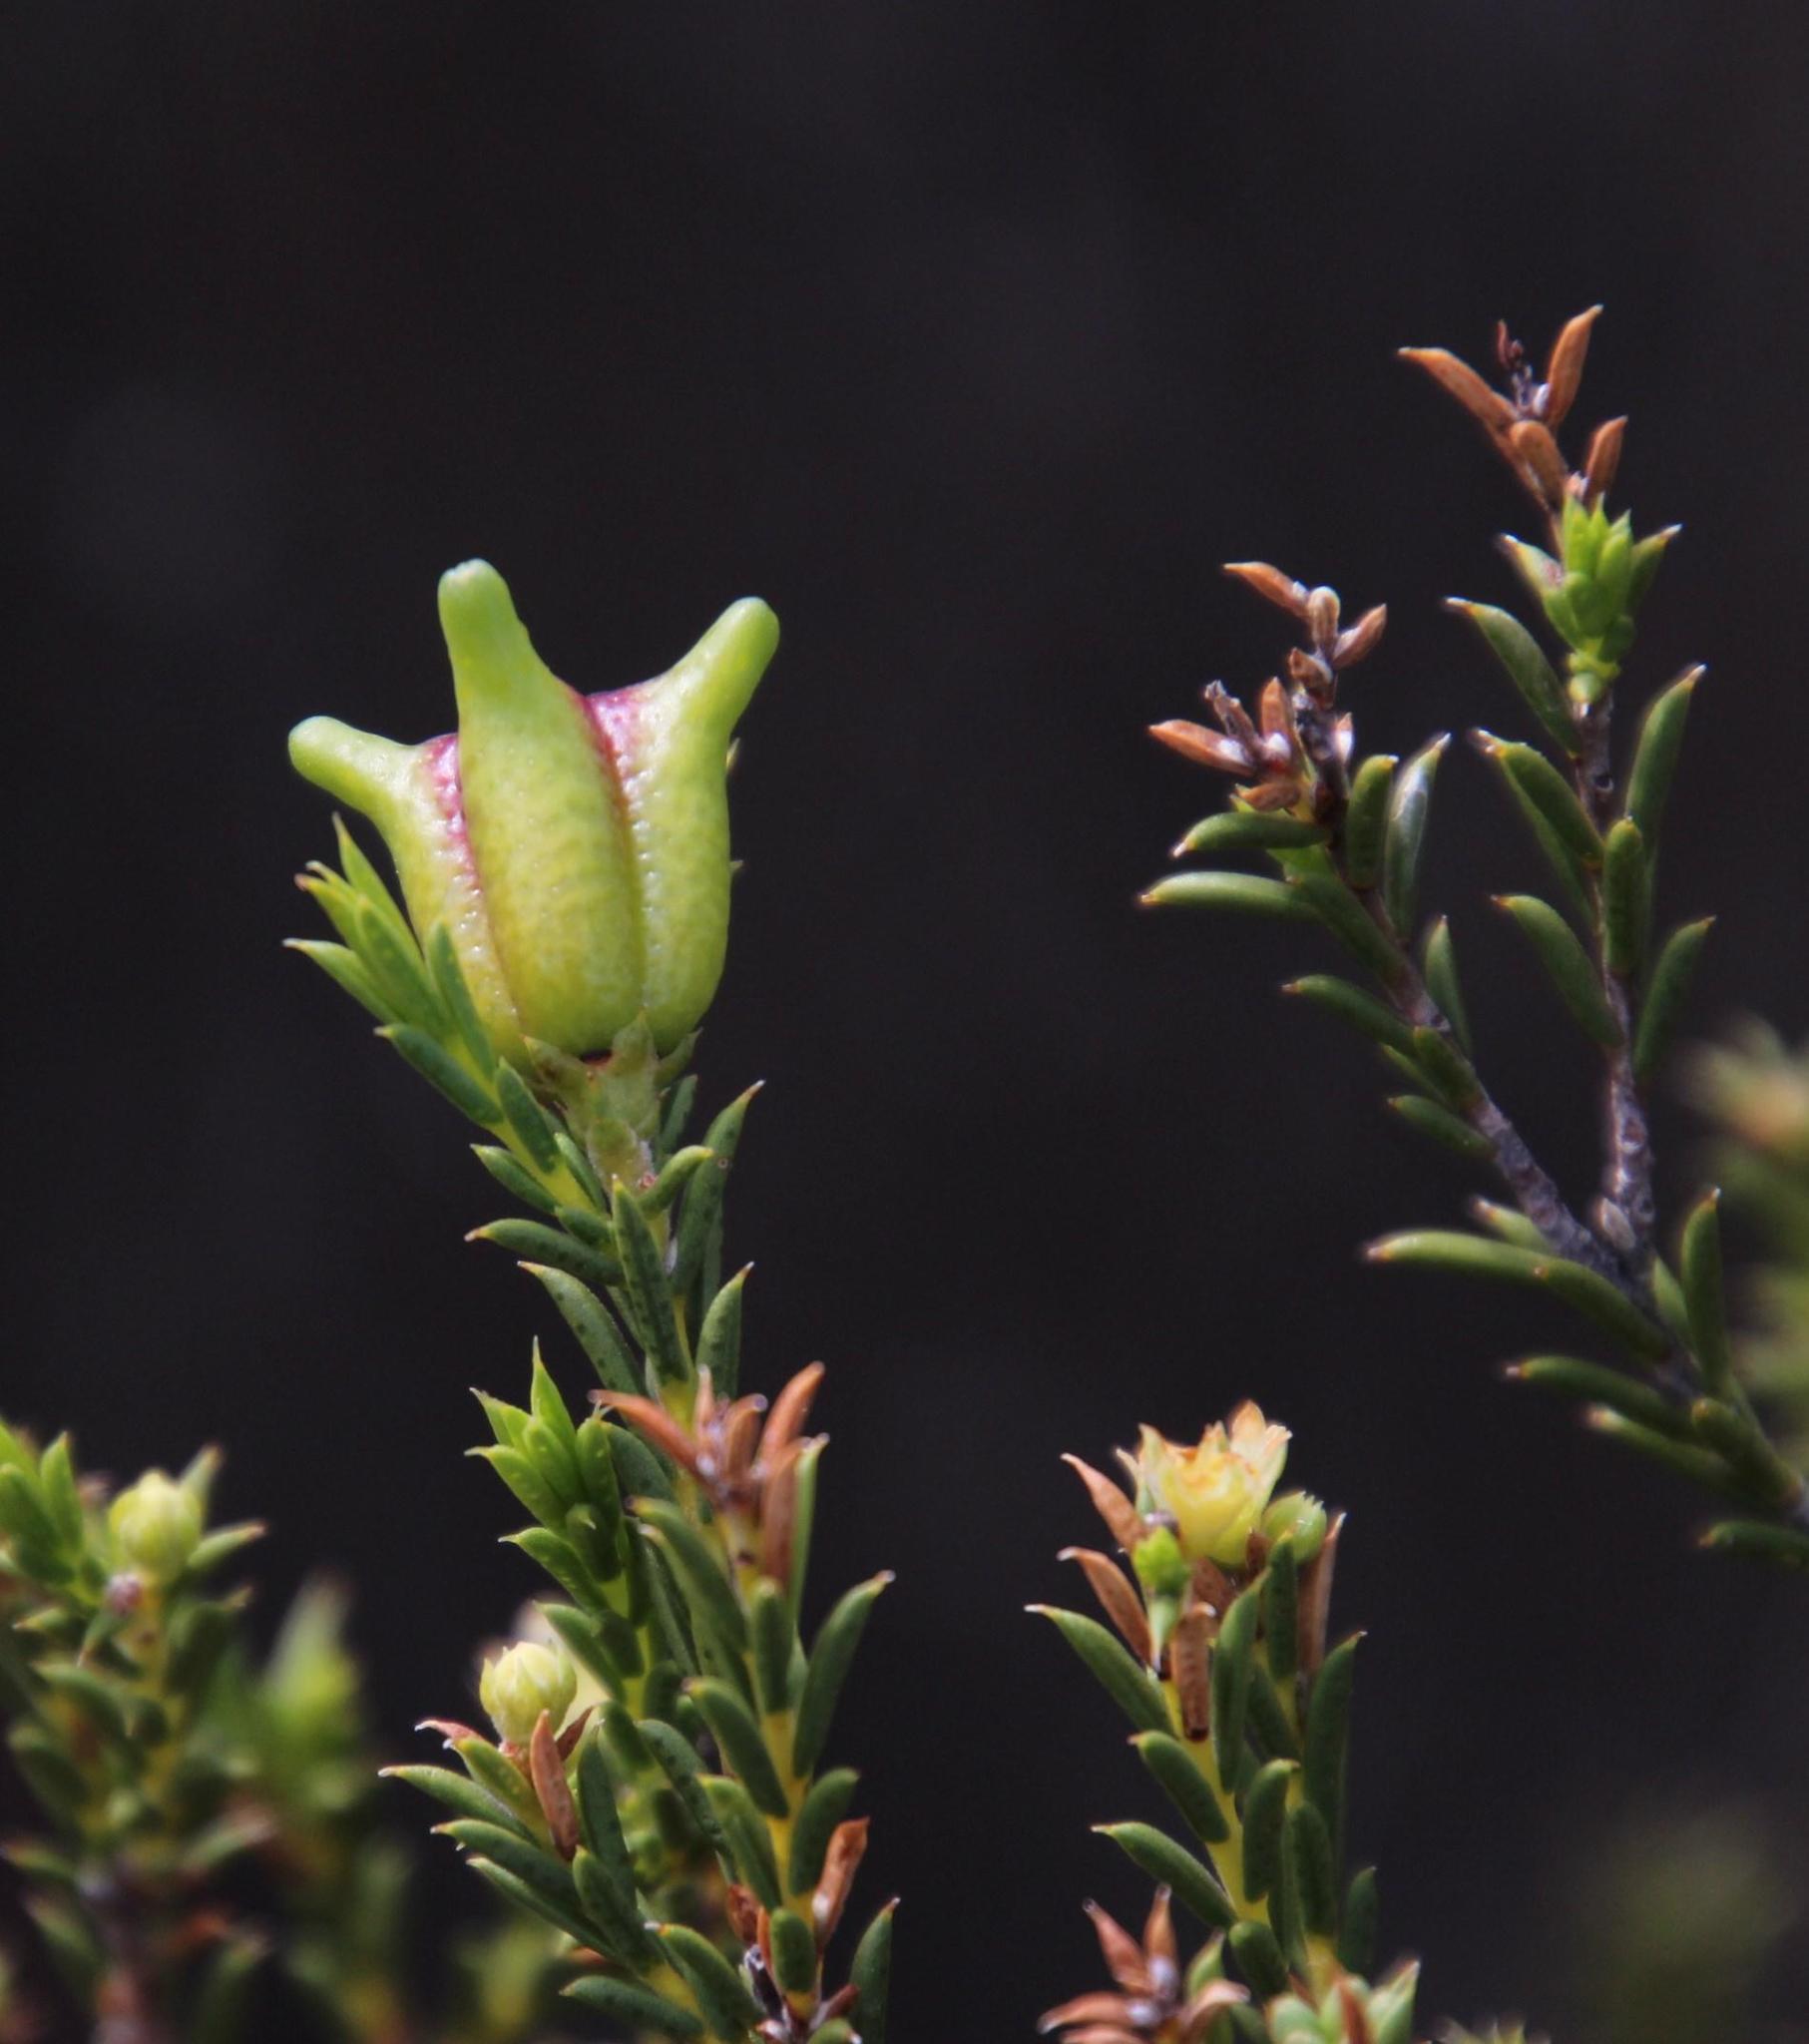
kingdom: Plantae
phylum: Tracheophyta
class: Magnoliopsida
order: Sapindales
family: Rutaceae
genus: Diosma
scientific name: Diosma acmaeophylla
